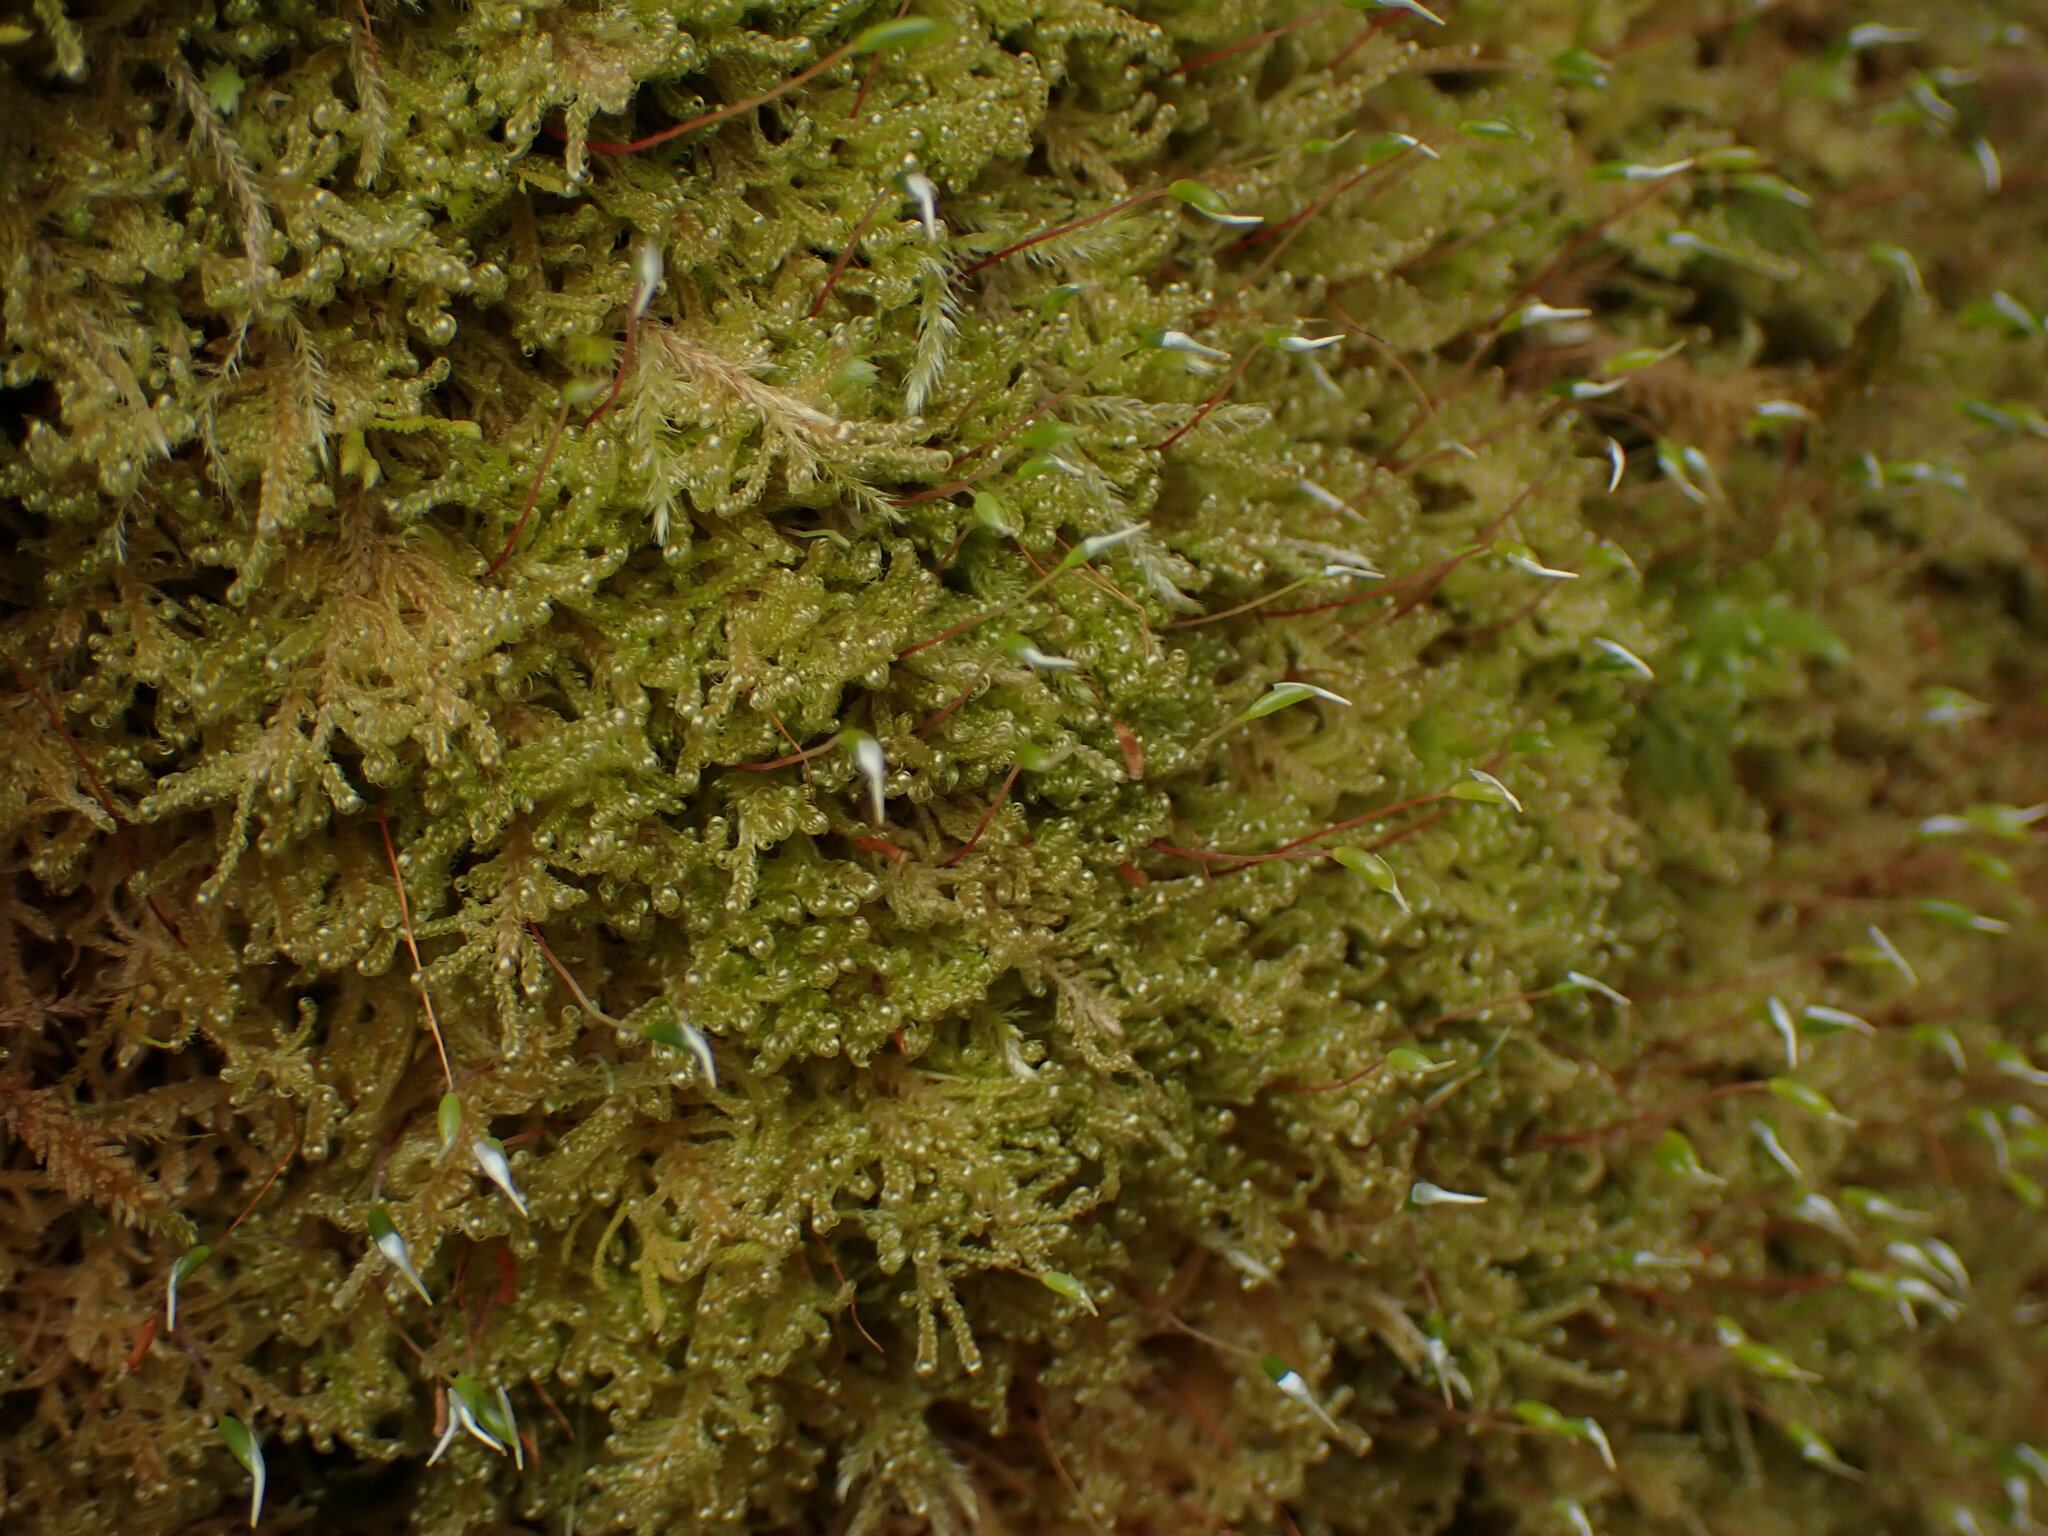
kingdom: Plantae
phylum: Bryophyta
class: Bryopsida
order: Hypnales
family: Stereodontaceae
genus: Stereodon
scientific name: Stereodon subimponens
